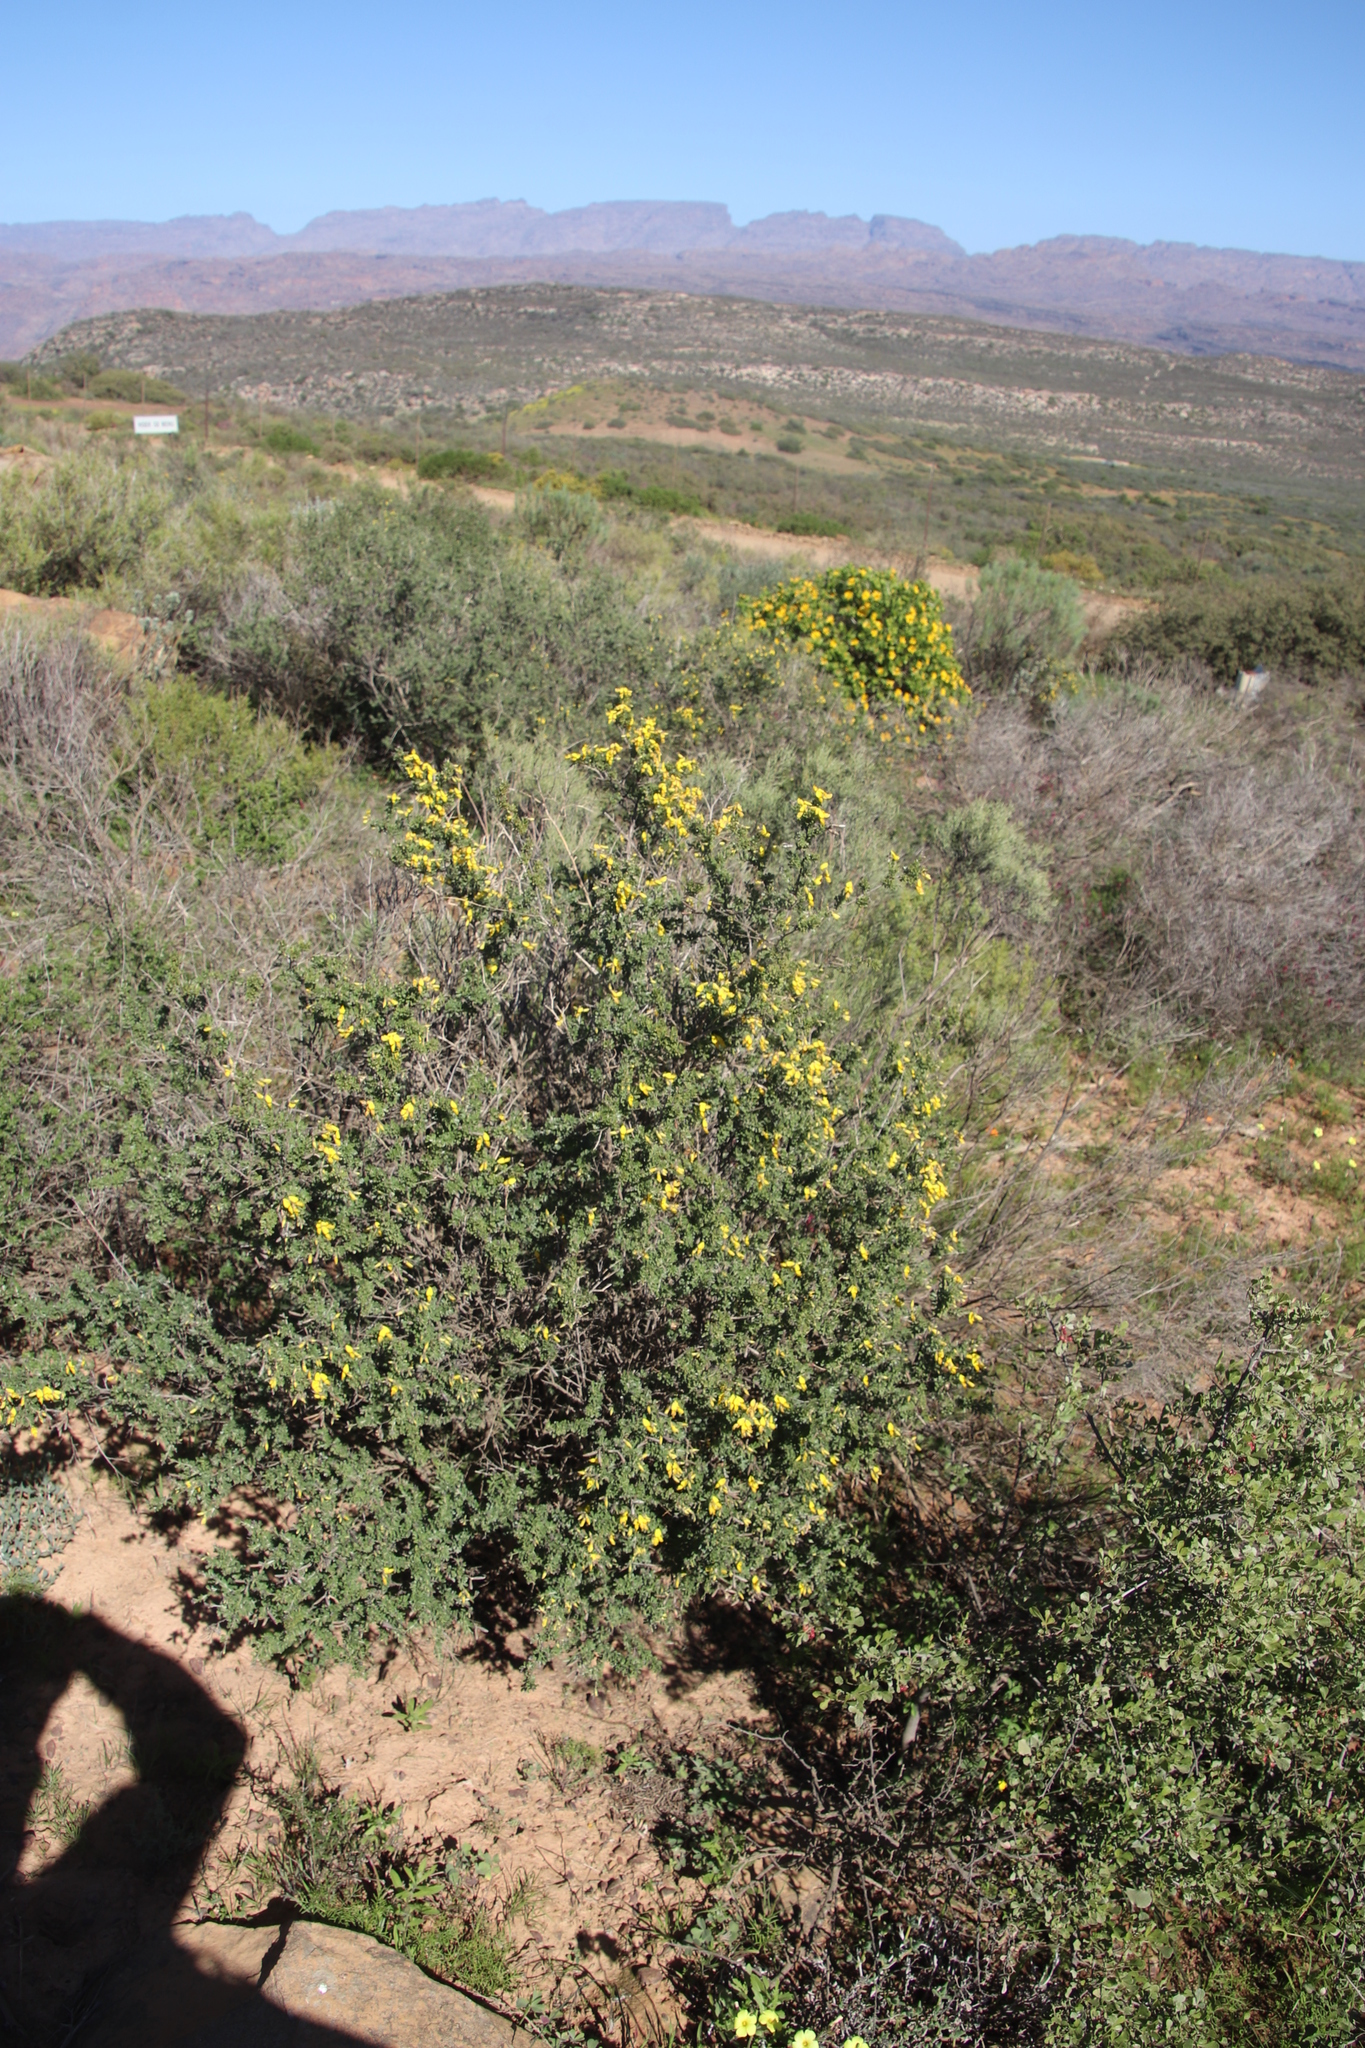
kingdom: Plantae
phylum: Tracheophyta
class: Magnoliopsida
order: Fabales
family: Fabaceae
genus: Wiborgiella
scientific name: Wiborgiella leipoldtiana
